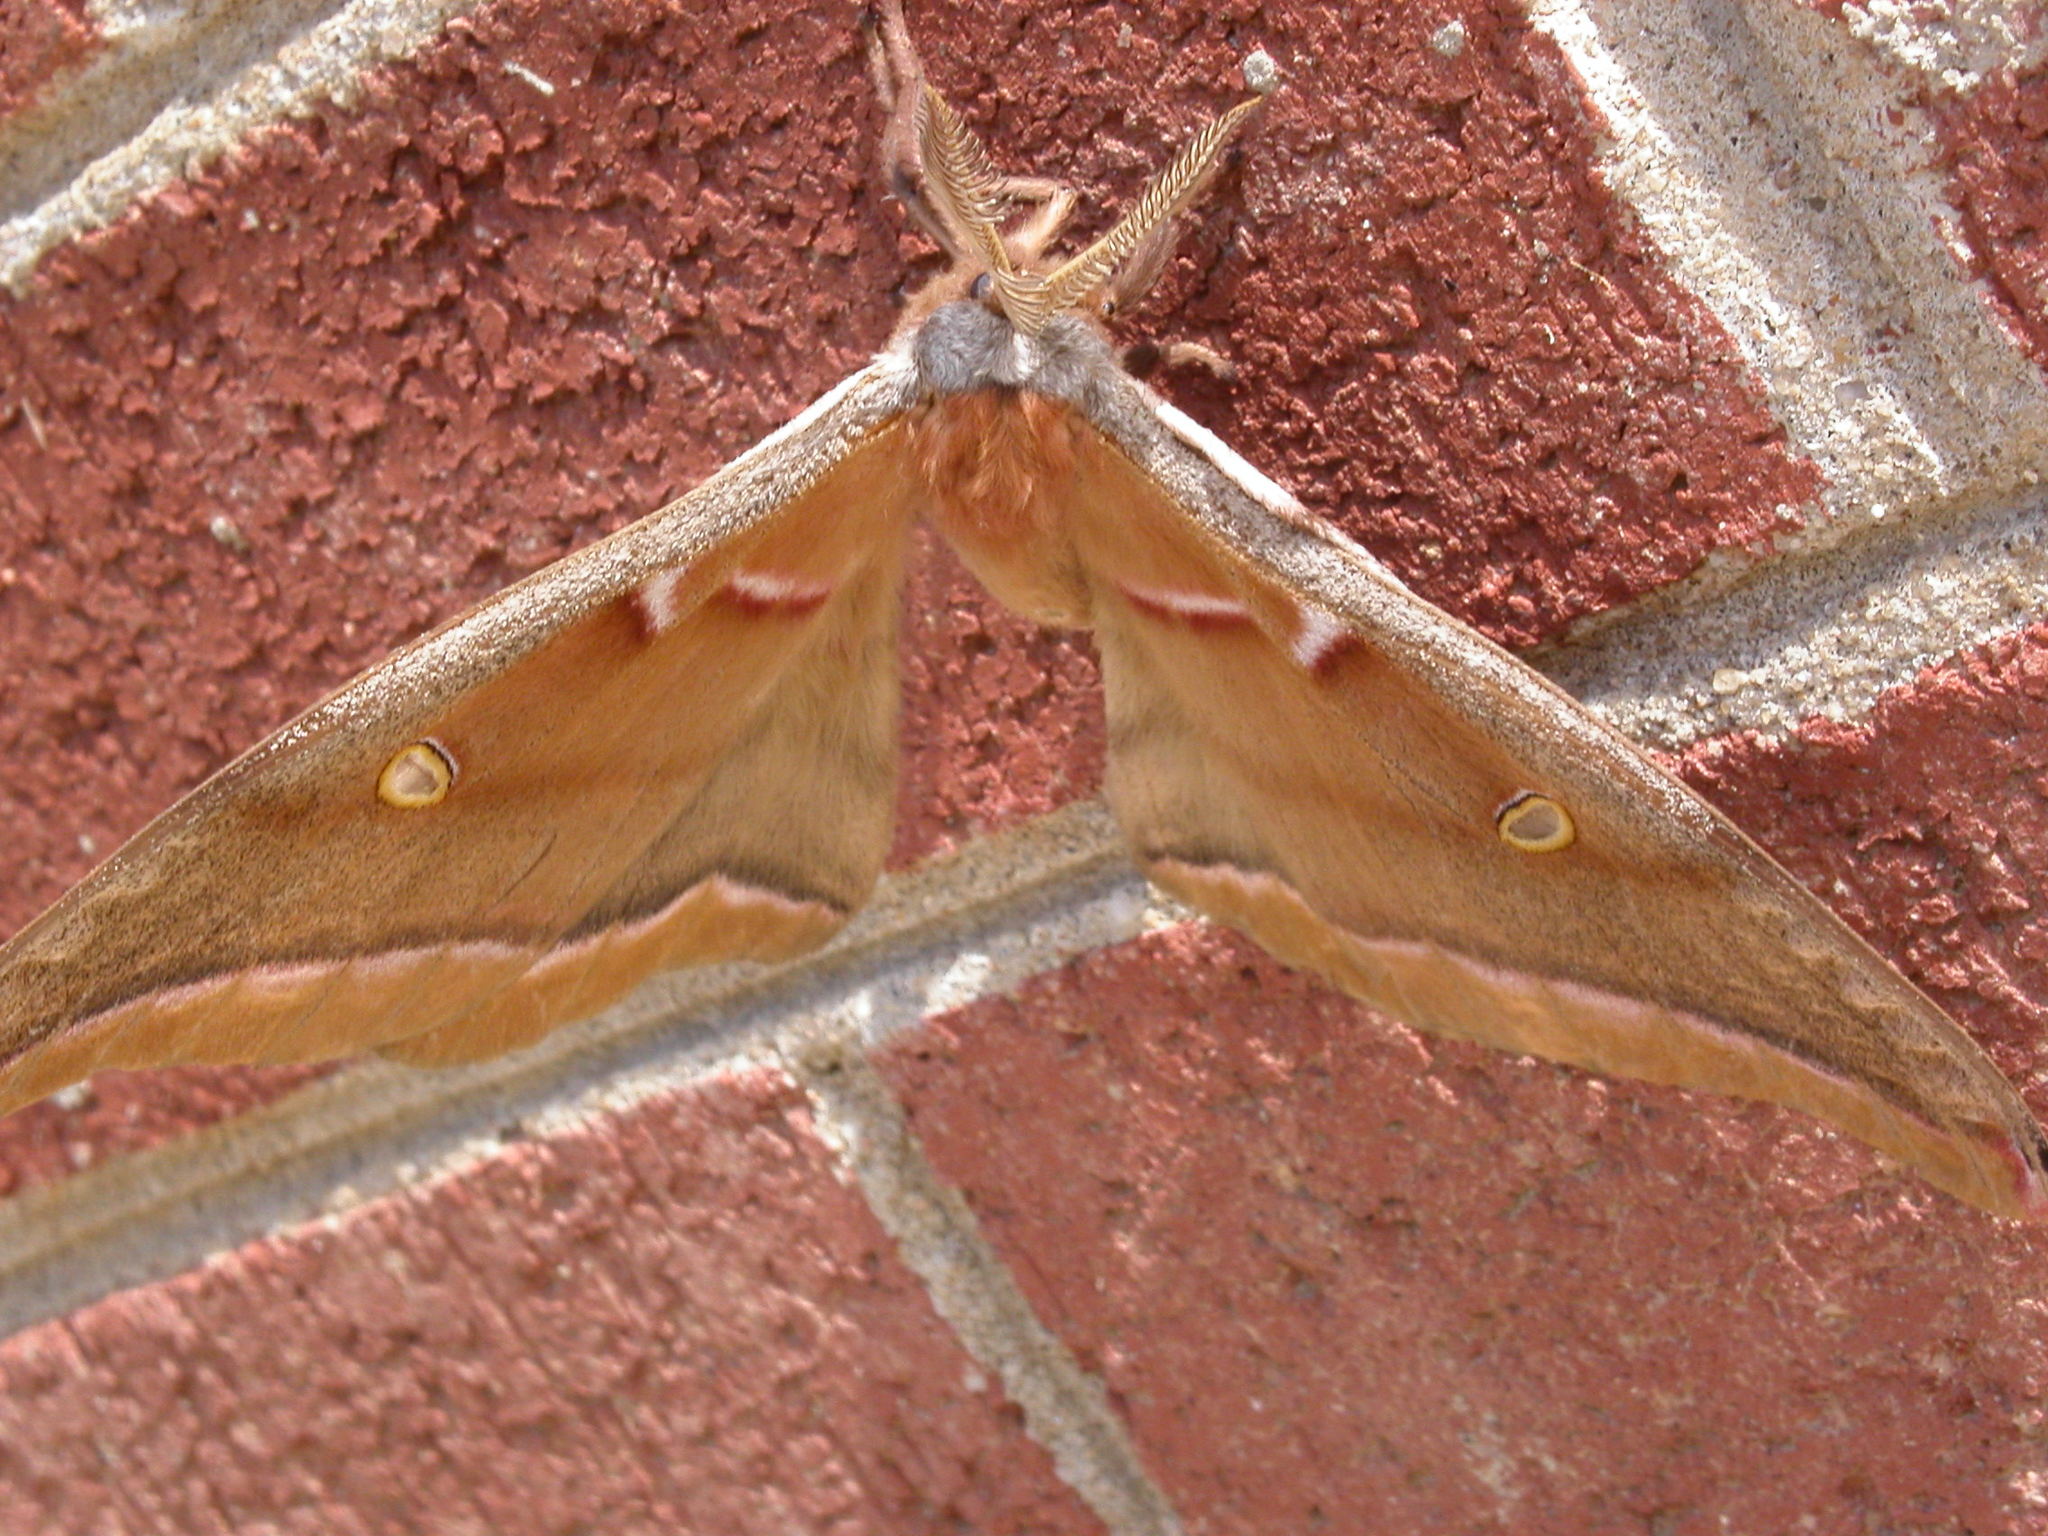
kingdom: Animalia
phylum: Arthropoda
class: Insecta
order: Lepidoptera
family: Saturniidae
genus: Antheraea
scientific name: Antheraea polyphemus
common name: Polyphemus moth
